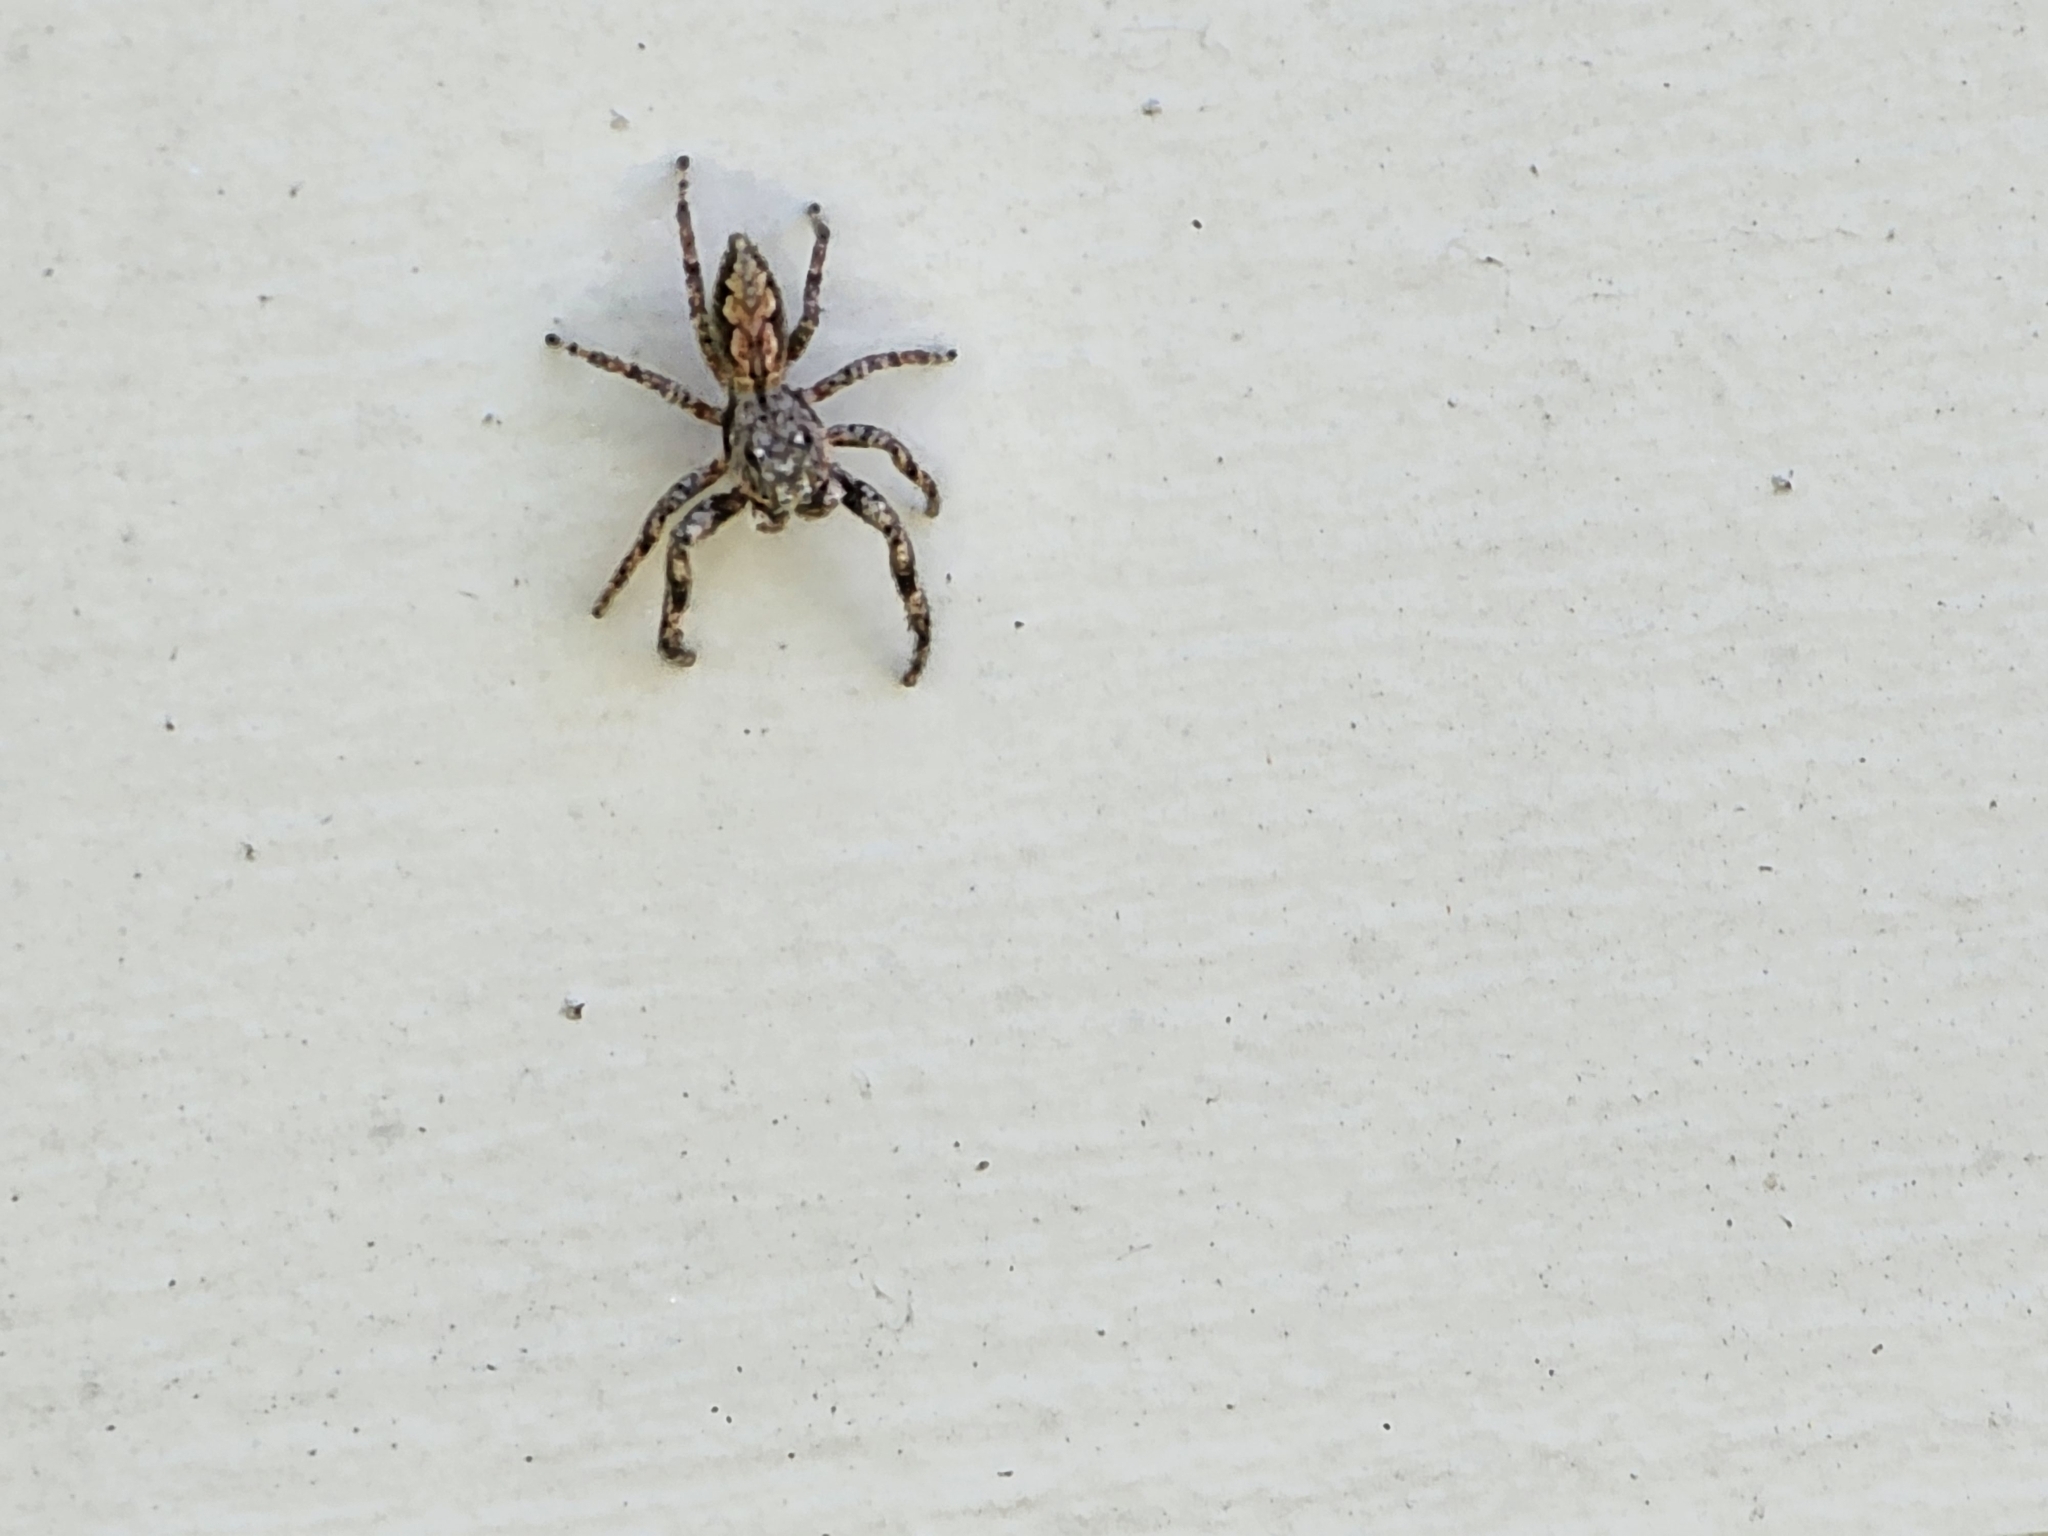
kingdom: Animalia
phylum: Arthropoda
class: Arachnida
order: Araneae
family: Salticidae
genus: Platycryptus
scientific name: Platycryptus undatus
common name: Tan jumping spider
